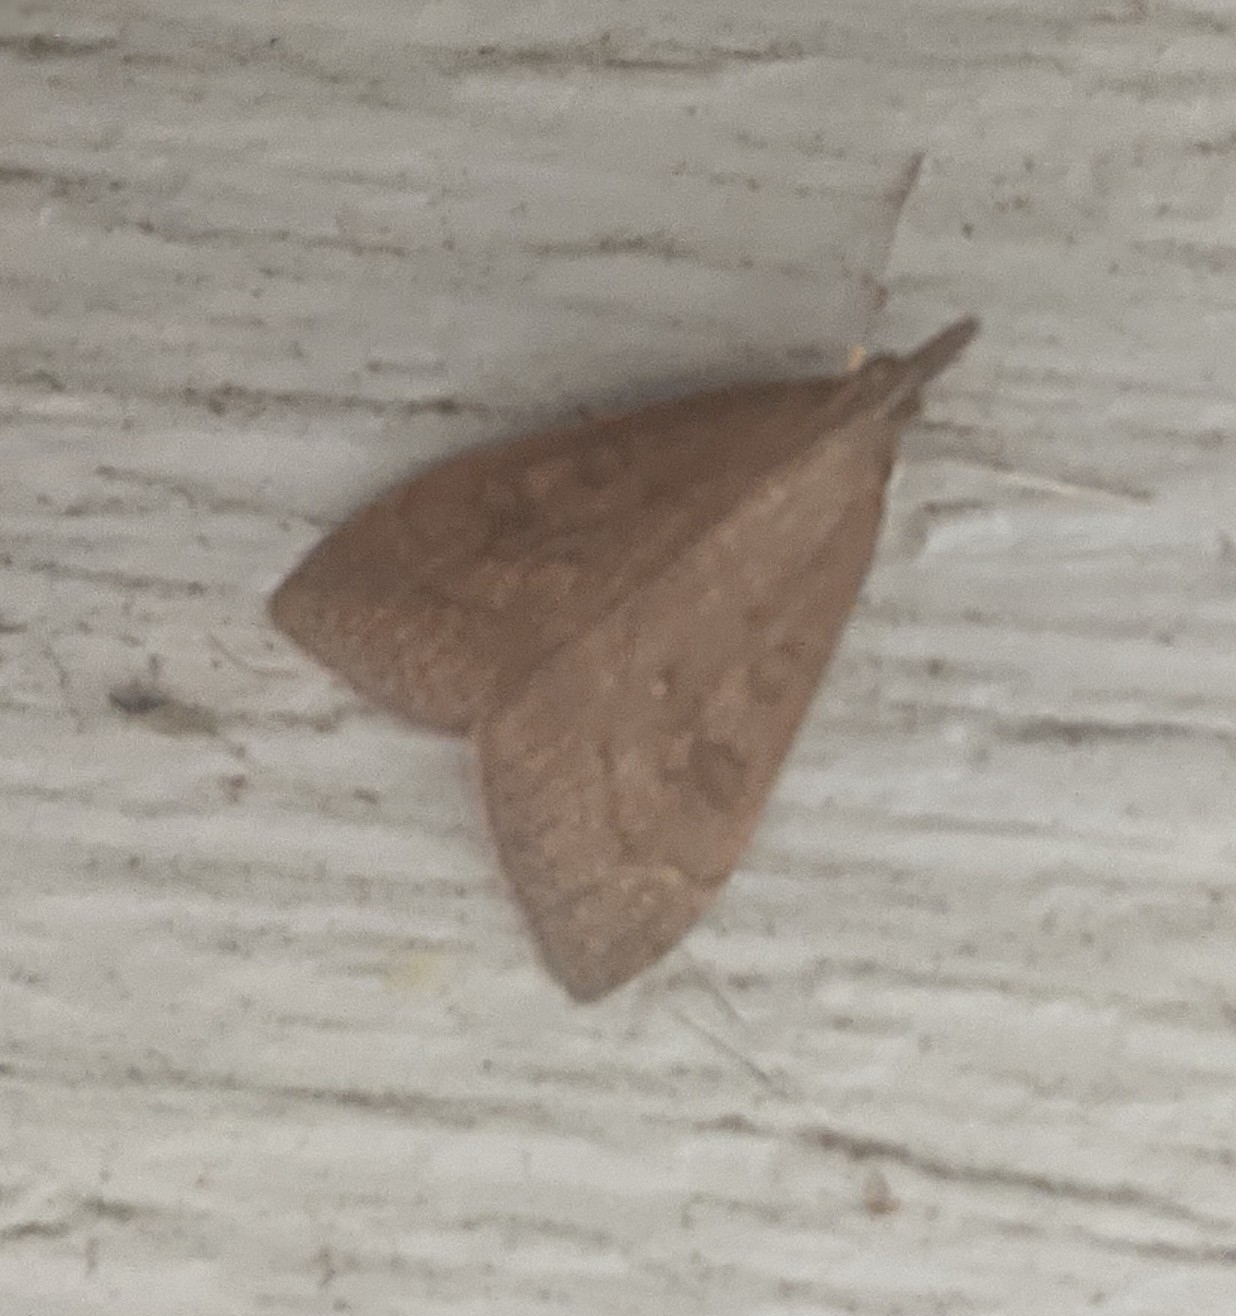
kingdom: Animalia
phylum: Arthropoda
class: Insecta
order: Lepidoptera
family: Crambidae
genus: Udea
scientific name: Udea rubigalis
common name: Celery leaftier moth
